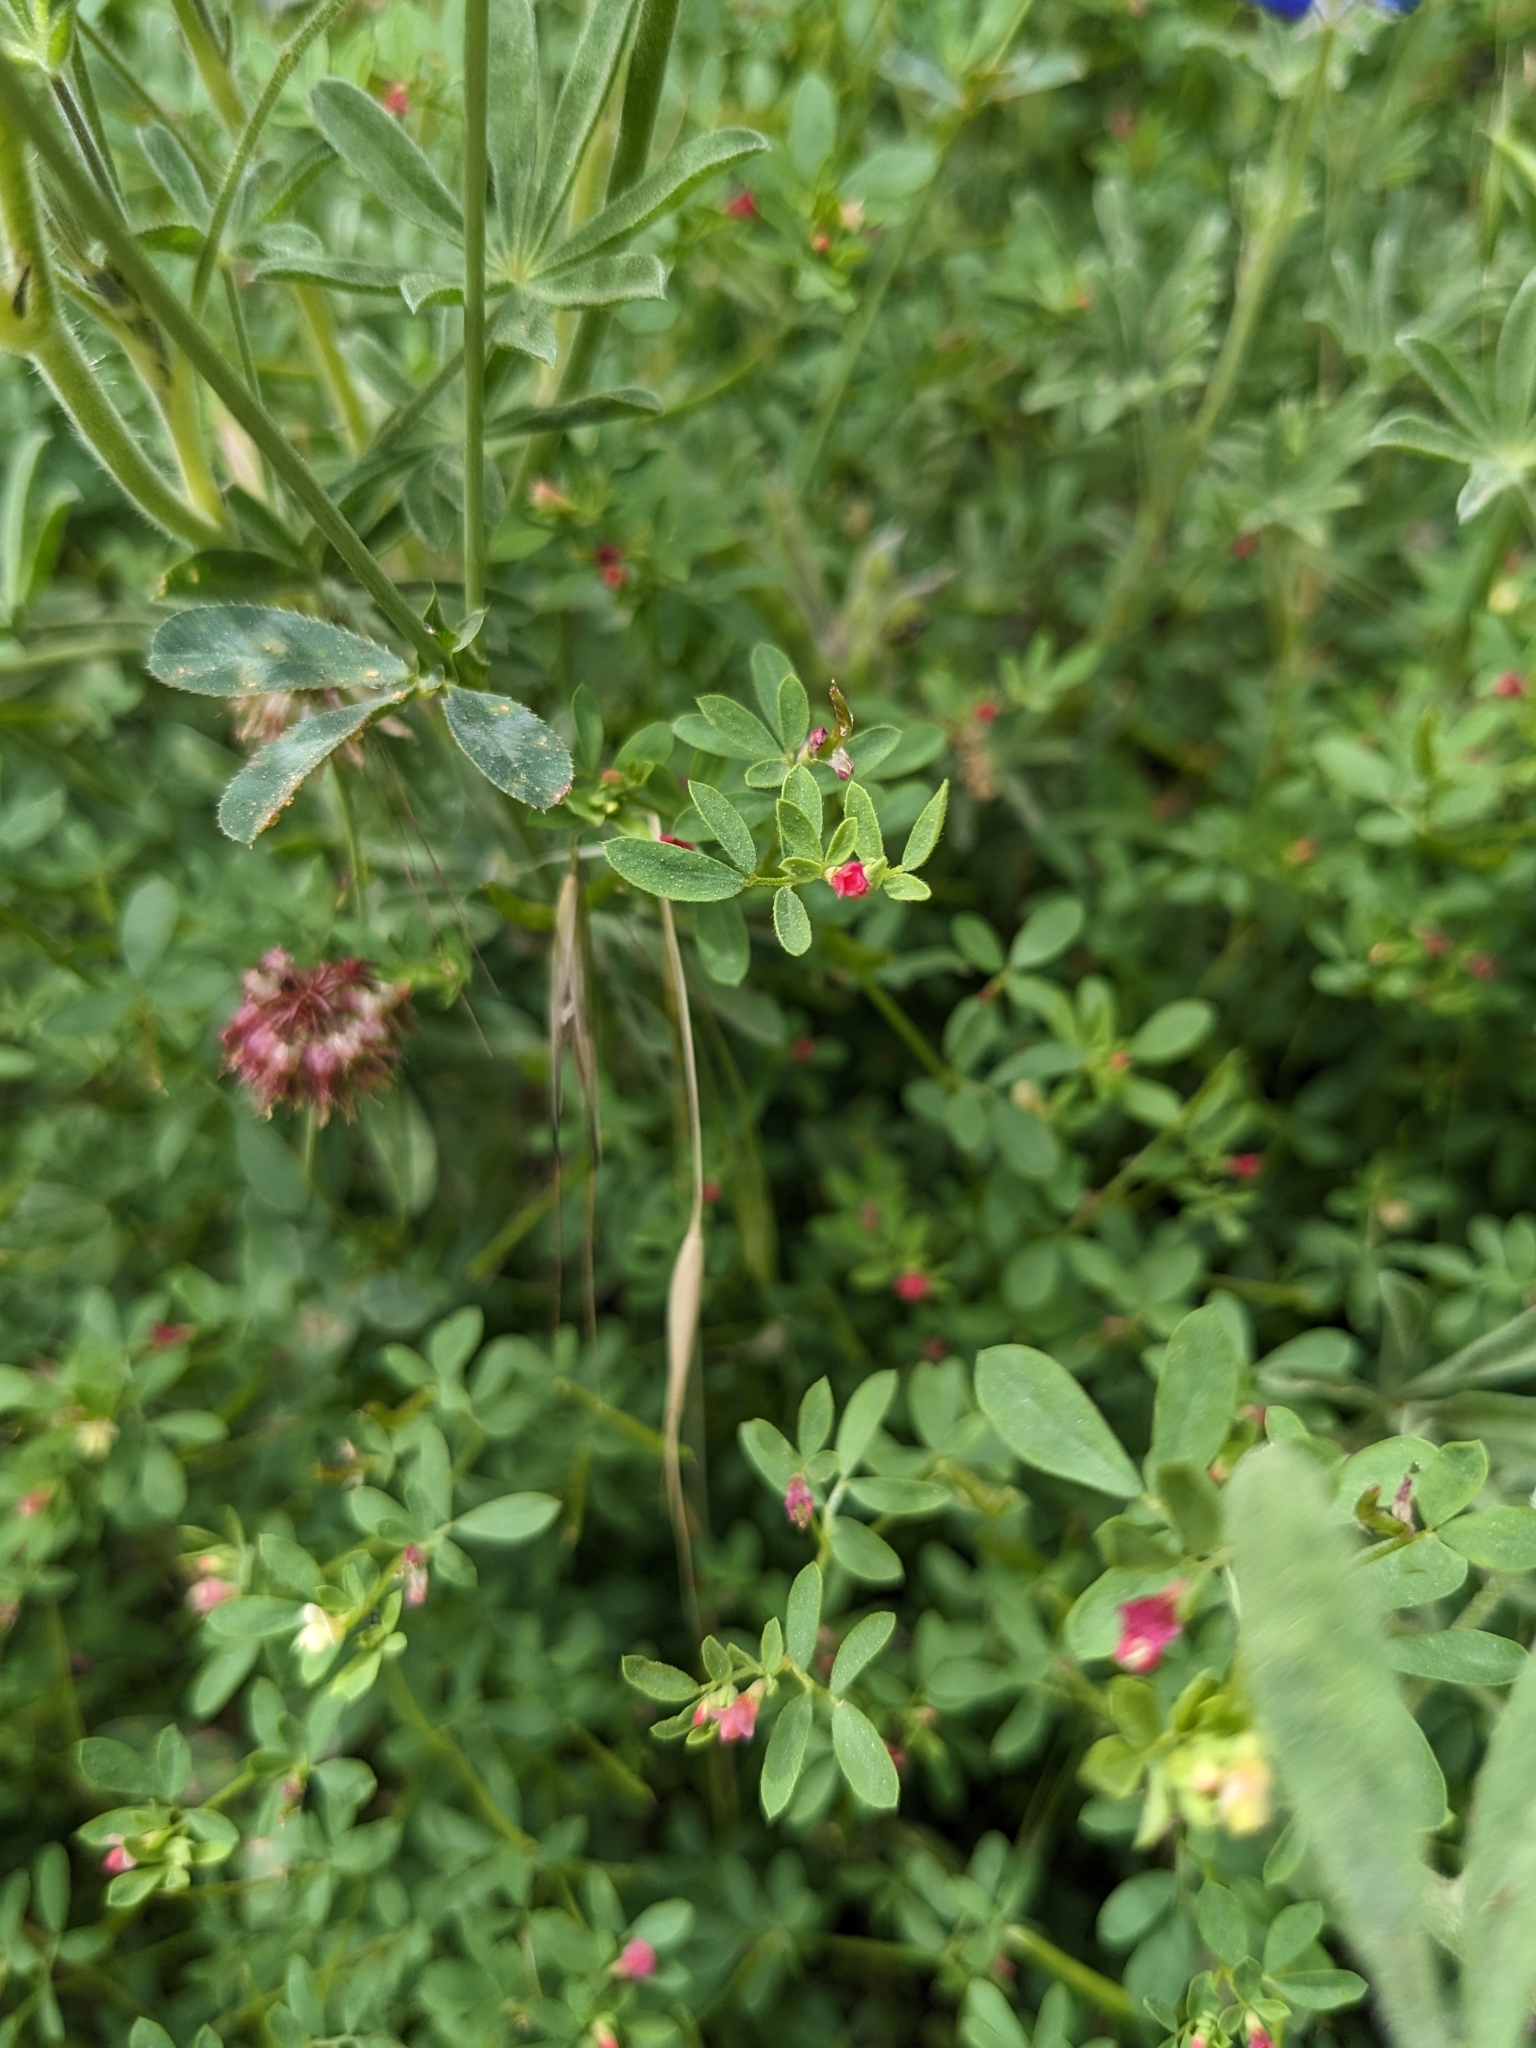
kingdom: Plantae
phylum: Tracheophyta
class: Magnoliopsida
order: Fabales
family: Fabaceae
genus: Acmispon
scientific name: Acmispon parviflorus
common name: Desert deer-vetch
